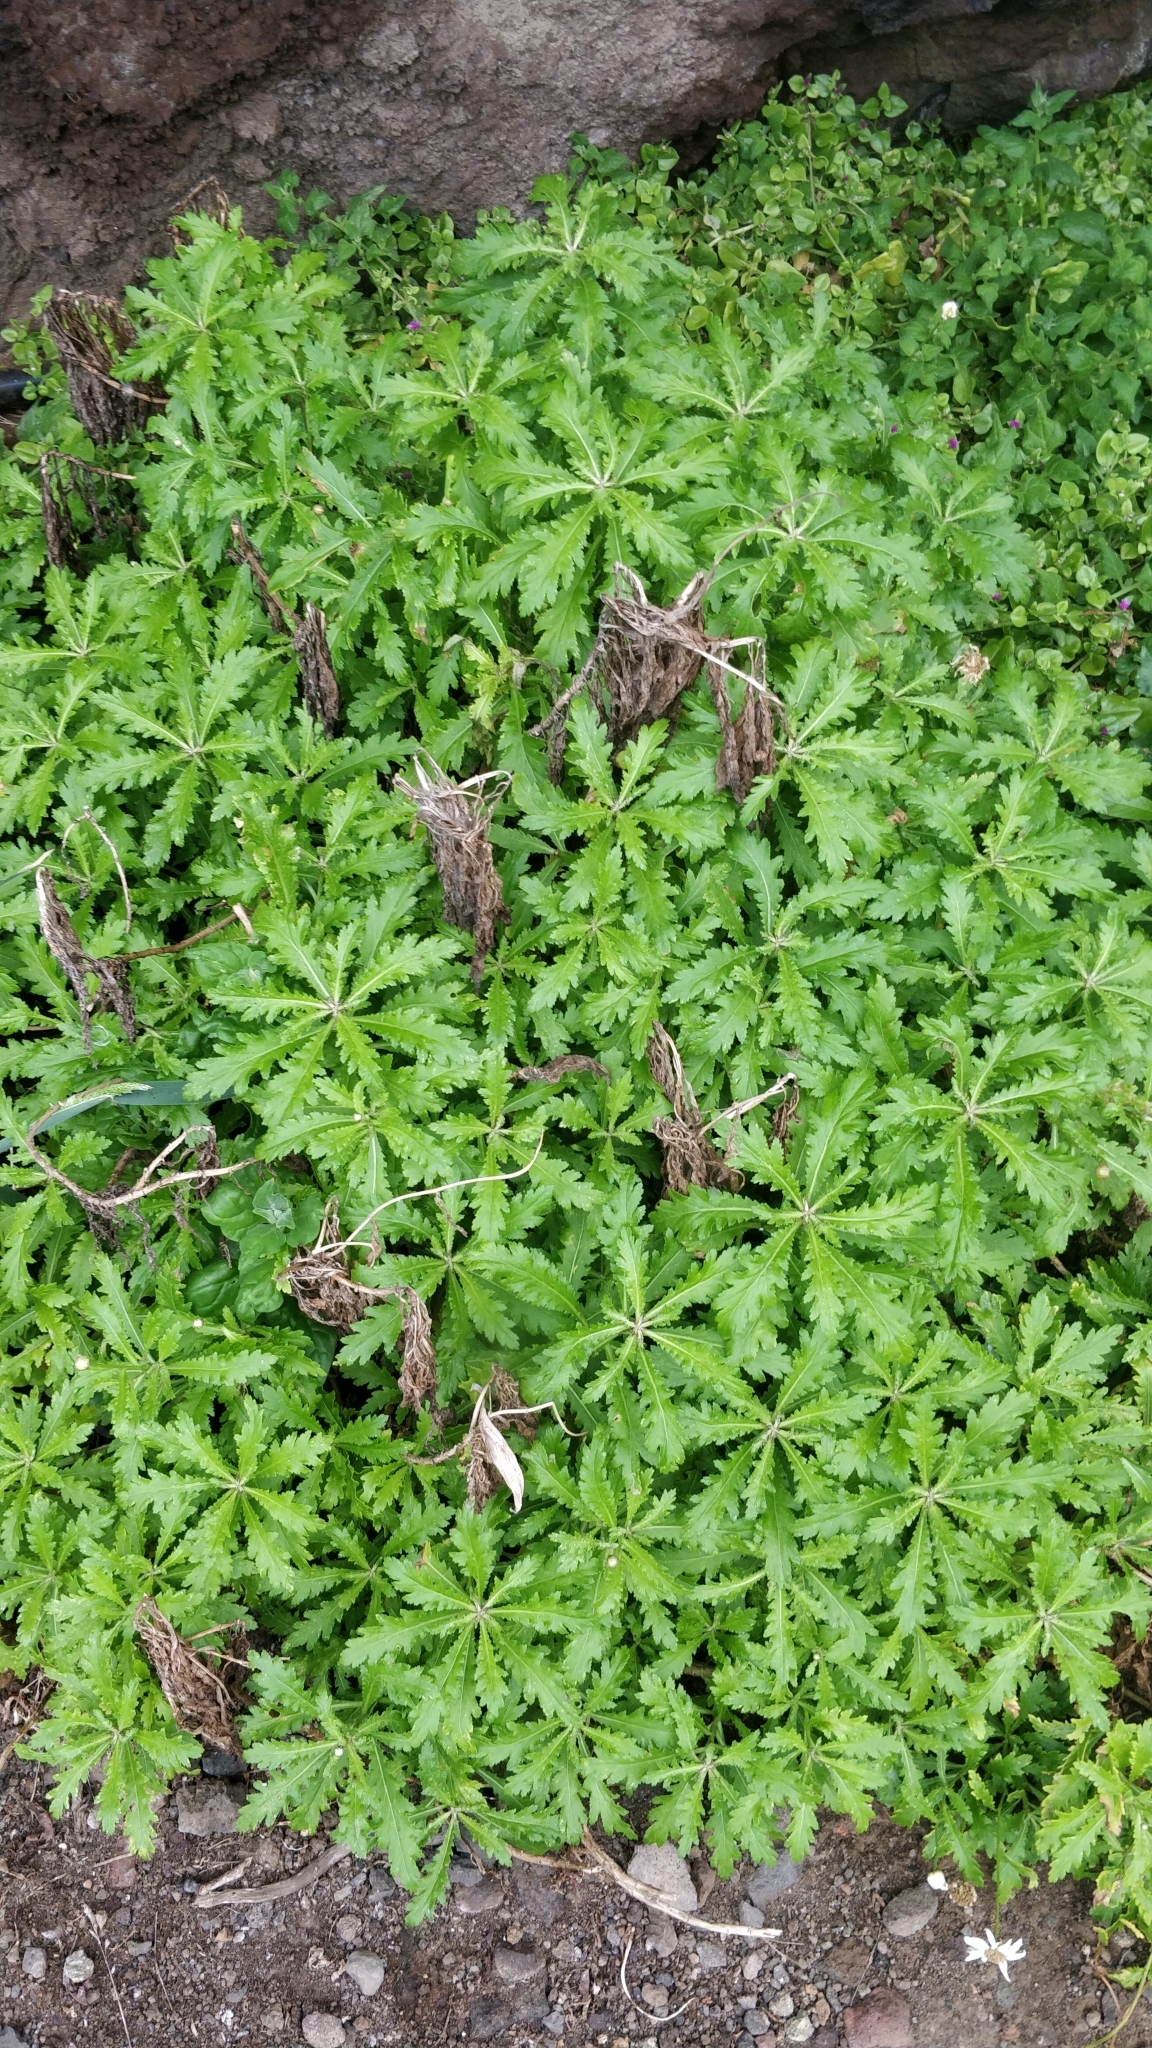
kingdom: Plantae
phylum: Tracheophyta
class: Magnoliopsida
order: Asterales
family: Asteraceae
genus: Argyranthemum
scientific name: Argyranthemum pinnatifidum
